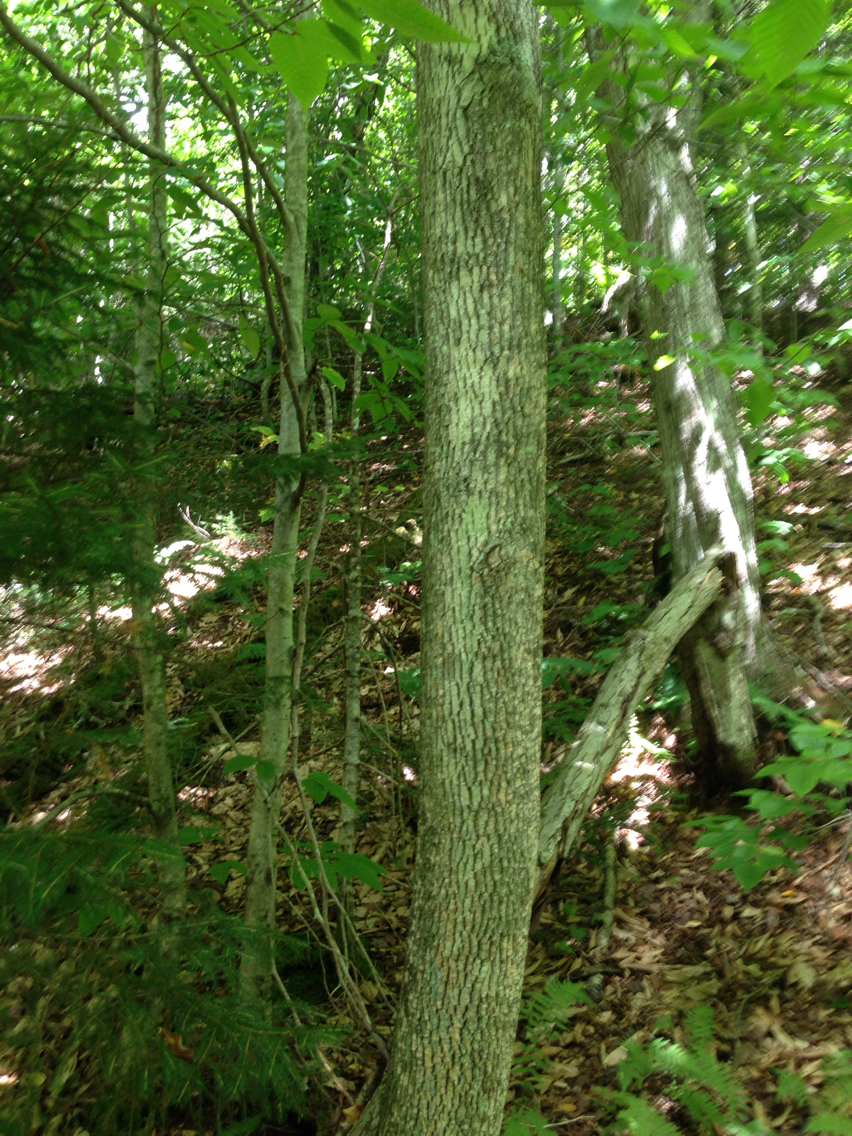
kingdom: Plantae
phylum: Tracheophyta
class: Magnoliopsida
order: Lamiales
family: Oleaceae
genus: Fraxinus
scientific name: Fraxinus americana
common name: White ash
